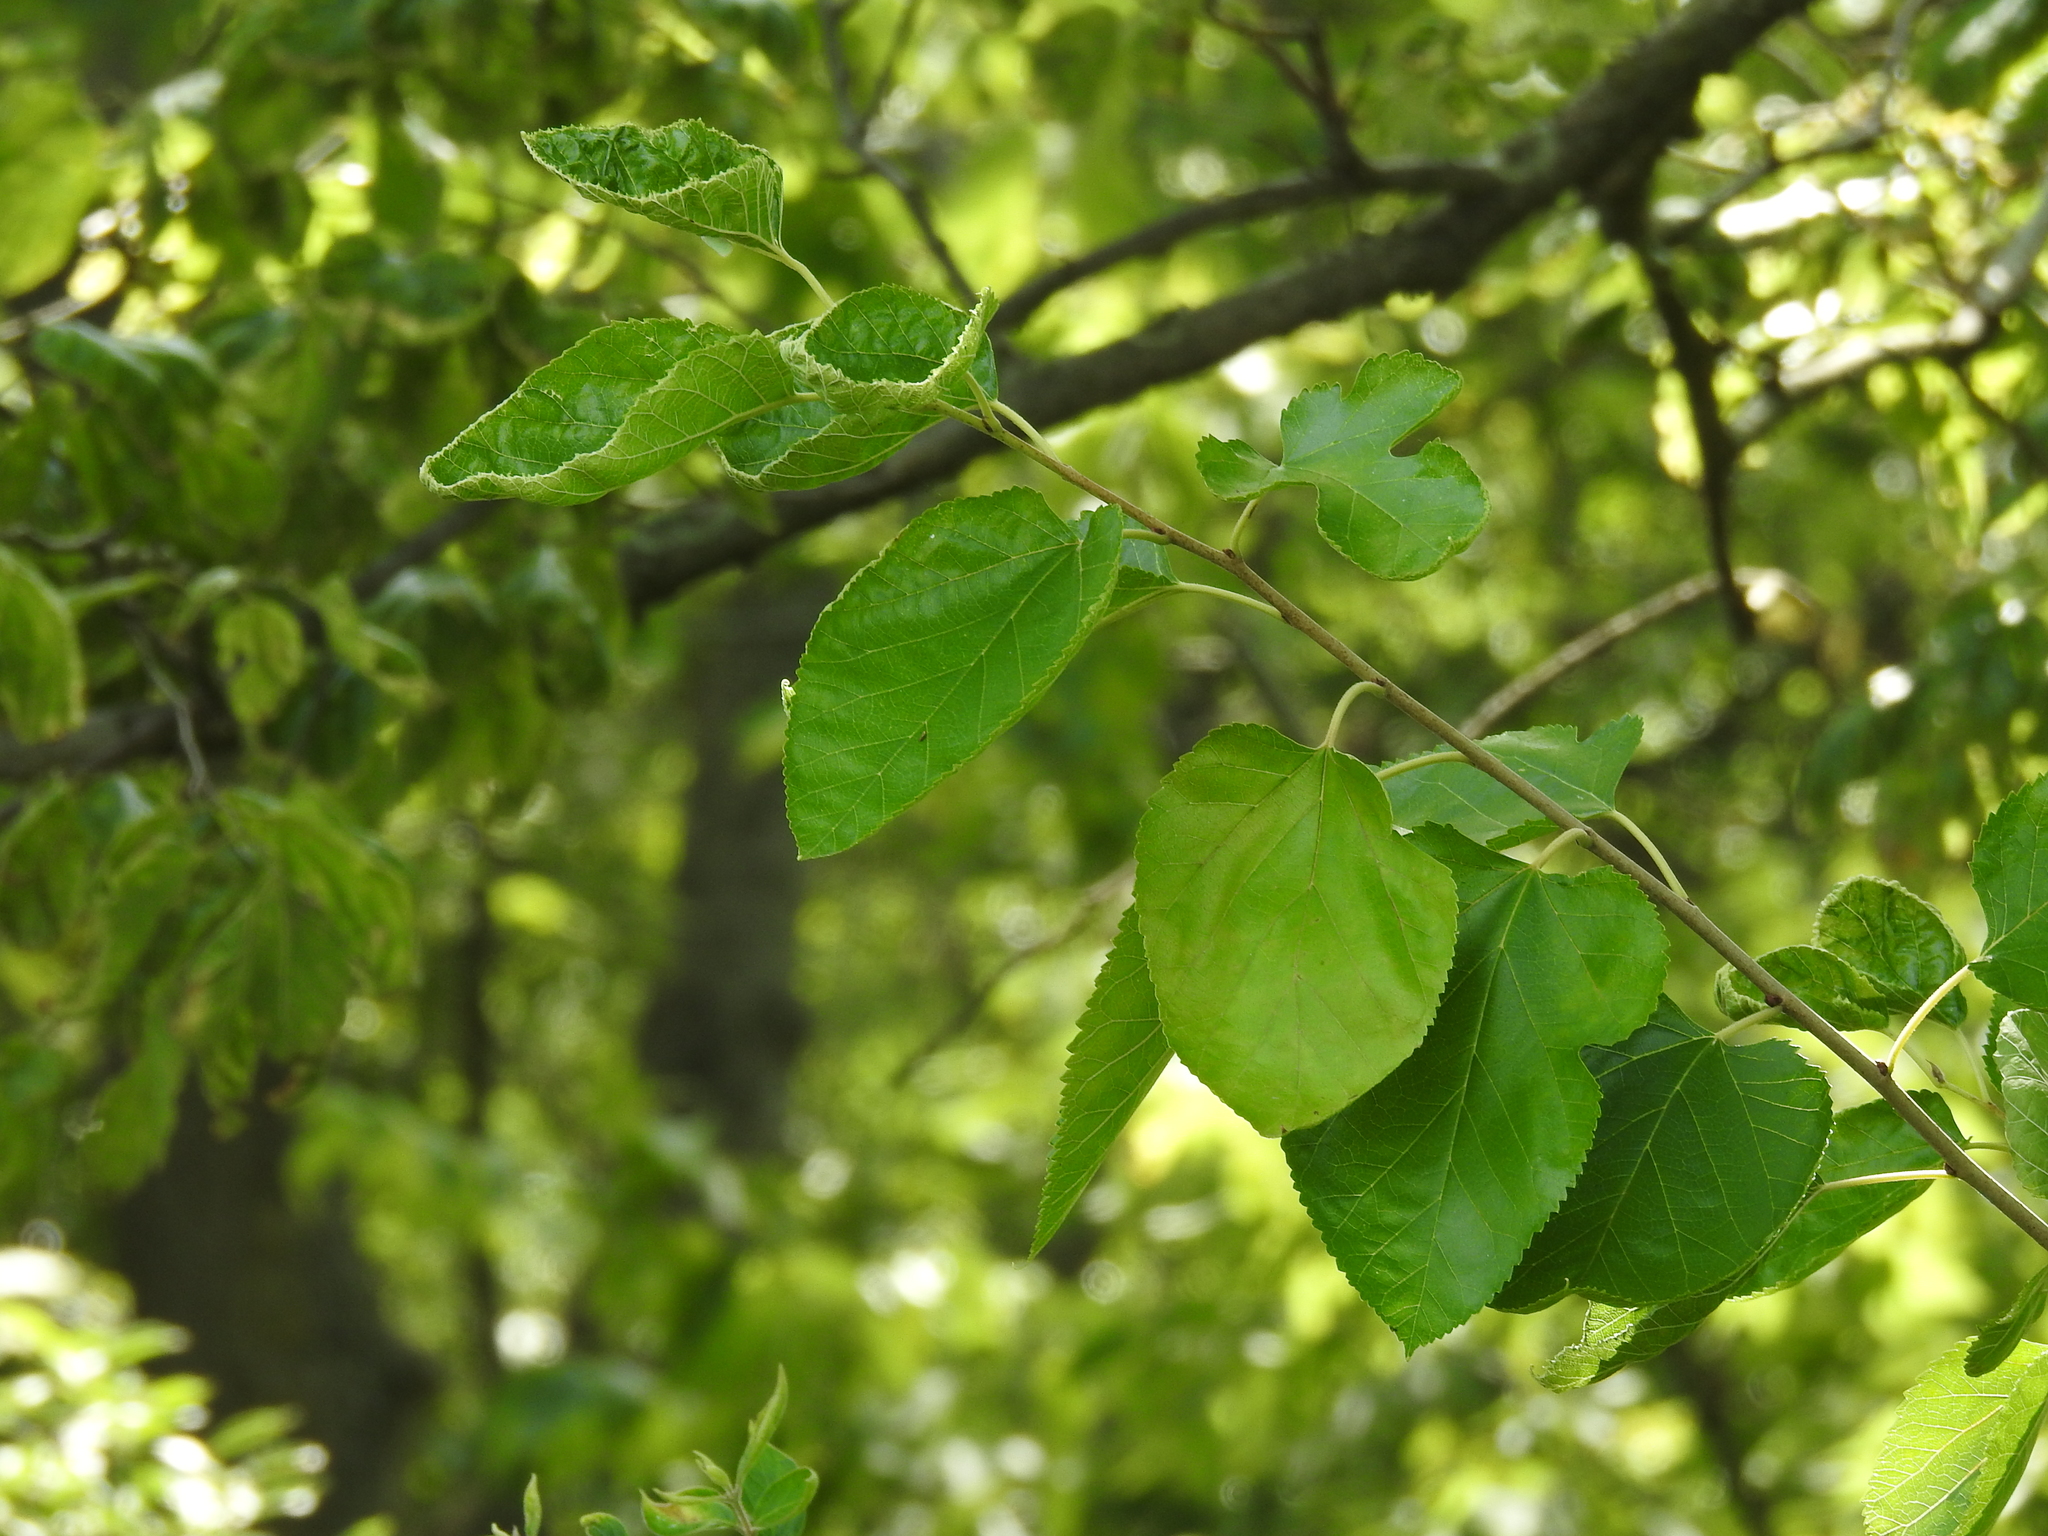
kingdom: Plantae
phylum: Tracheophyta
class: Magnoliopsida
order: Rosales
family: Moraceae
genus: Morus
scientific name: Morus alba
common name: White mulberry
